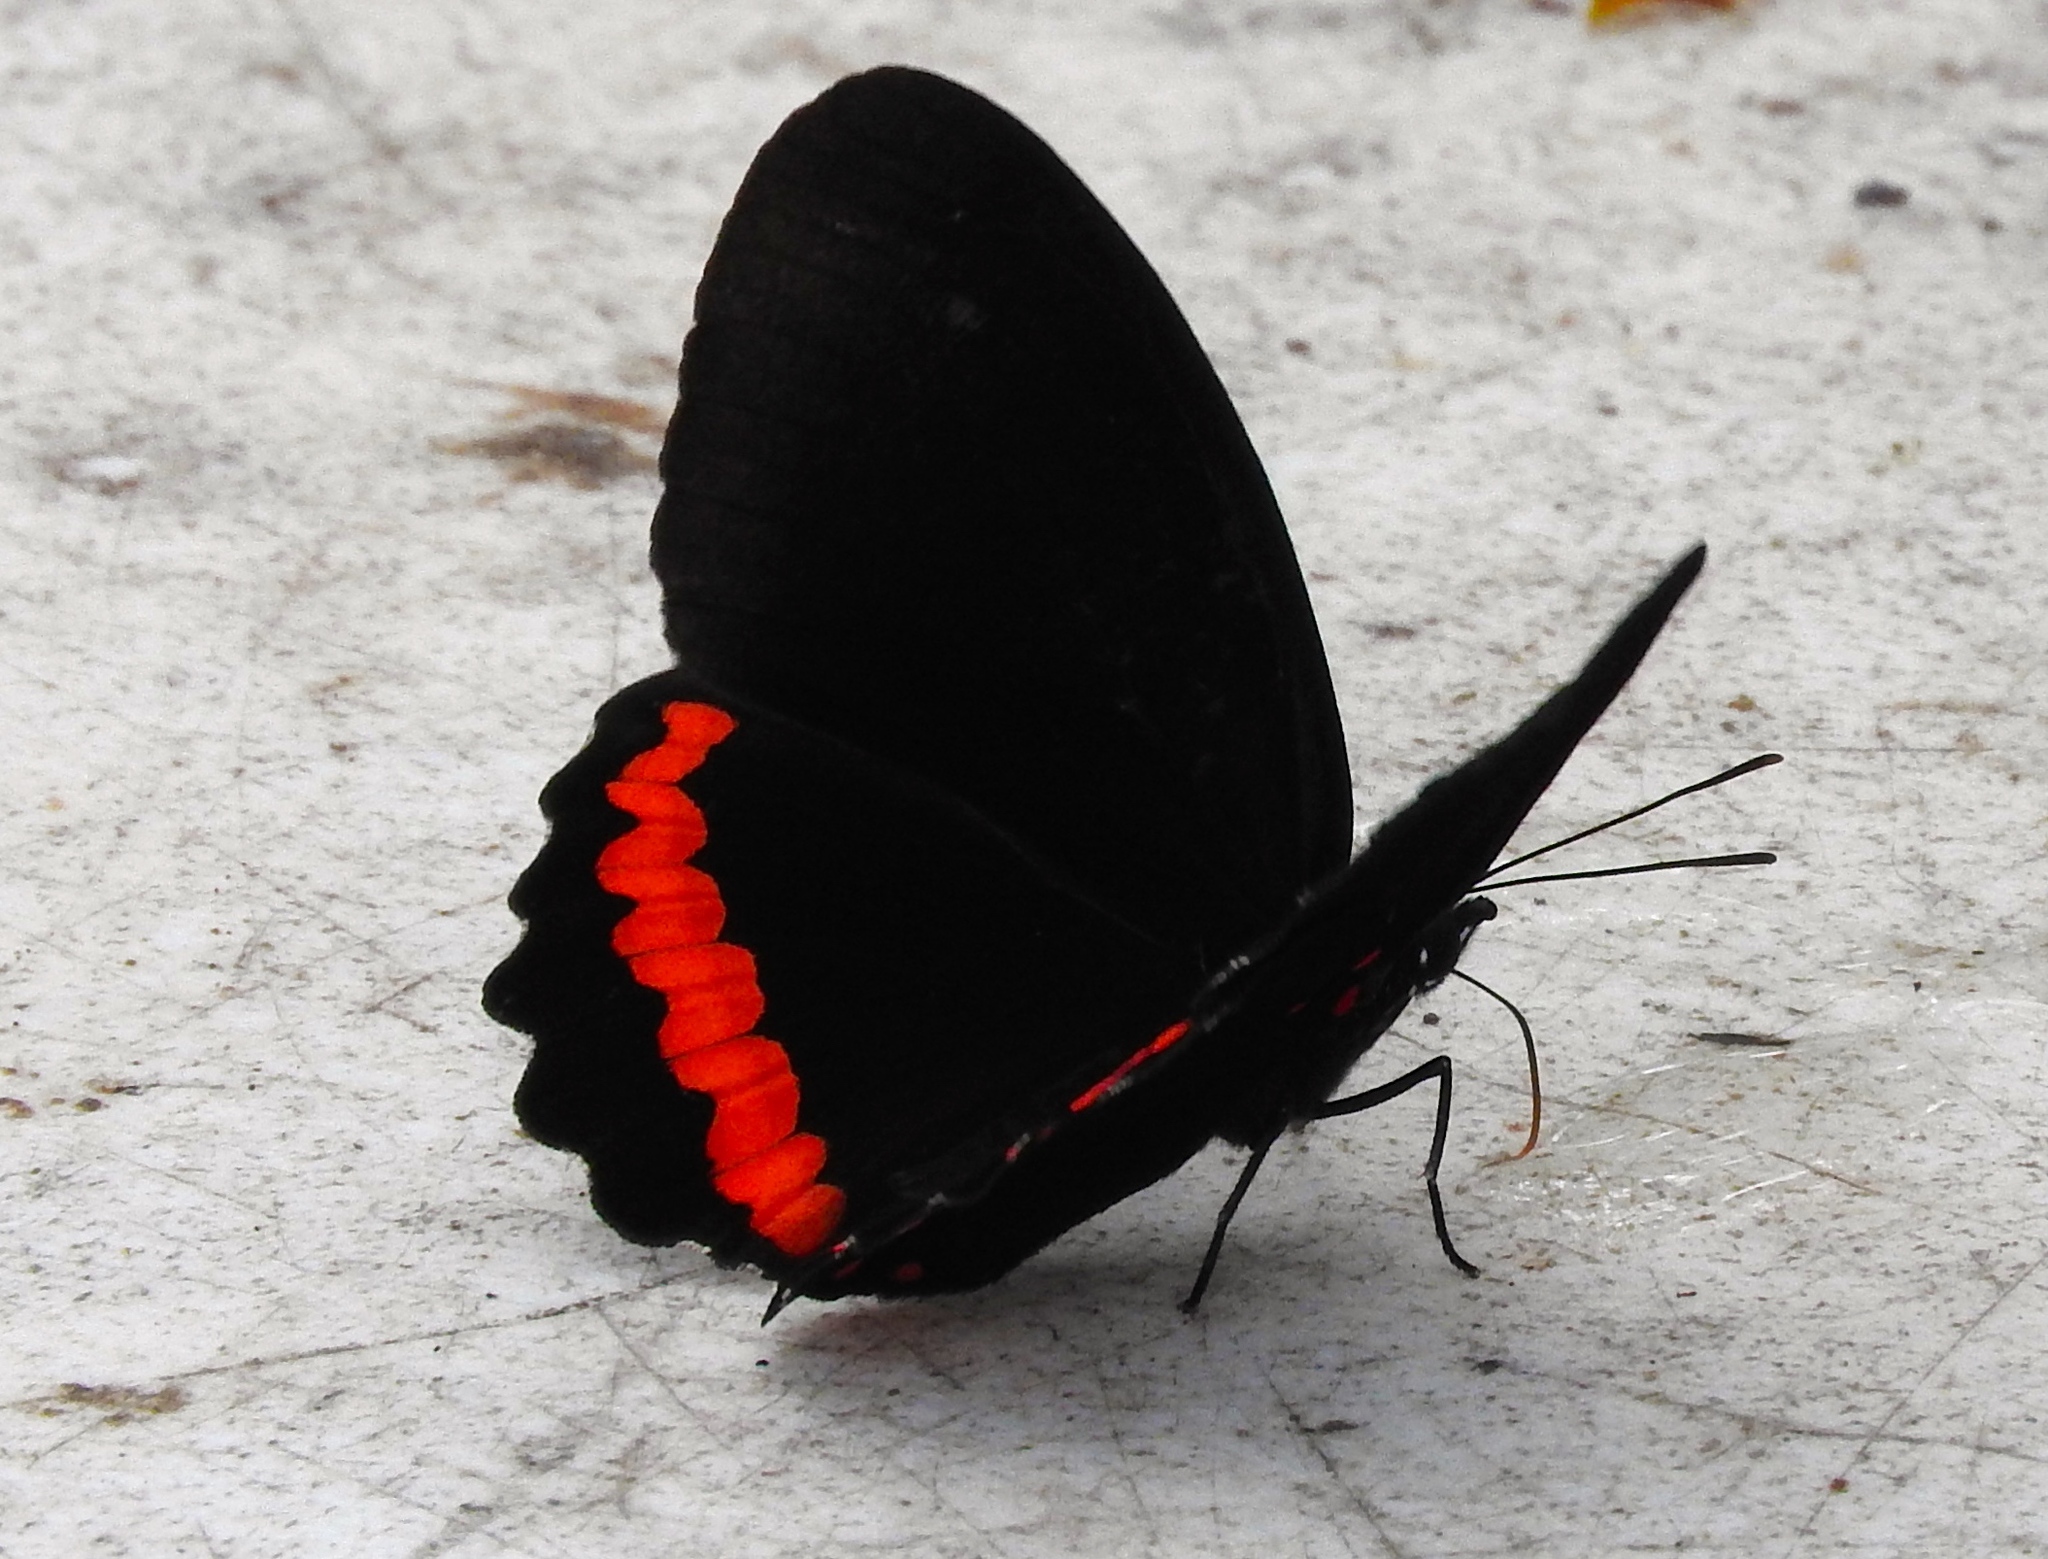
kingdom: Animalia
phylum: Arthropoda
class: Insecta
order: Lepidoptera
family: Nymphalidae
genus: Biblis
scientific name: Biblis aganisa
